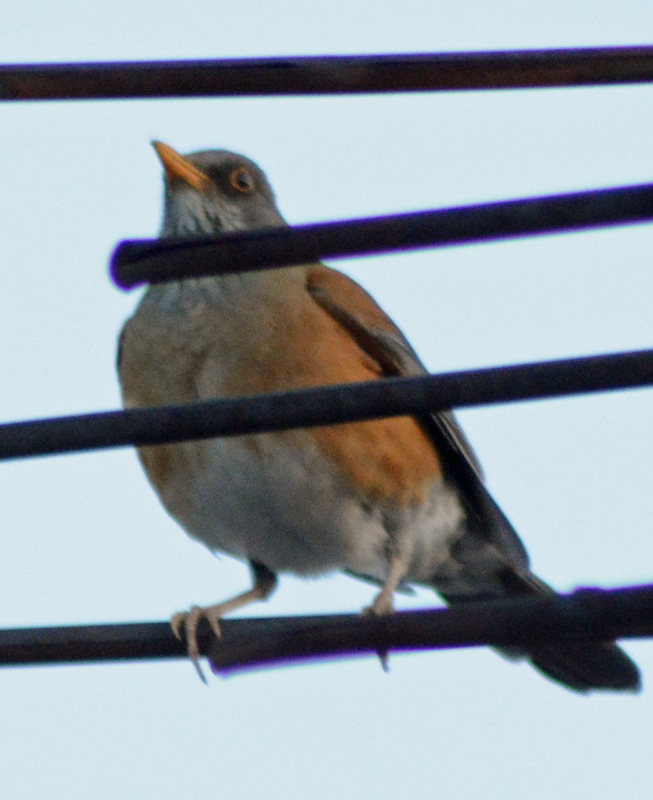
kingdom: Animalia
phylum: Chordata
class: Aves
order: Passeriformes
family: Turdidae
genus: Turdus
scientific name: Turdus rufopalliatus
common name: Rufous-backed robin
